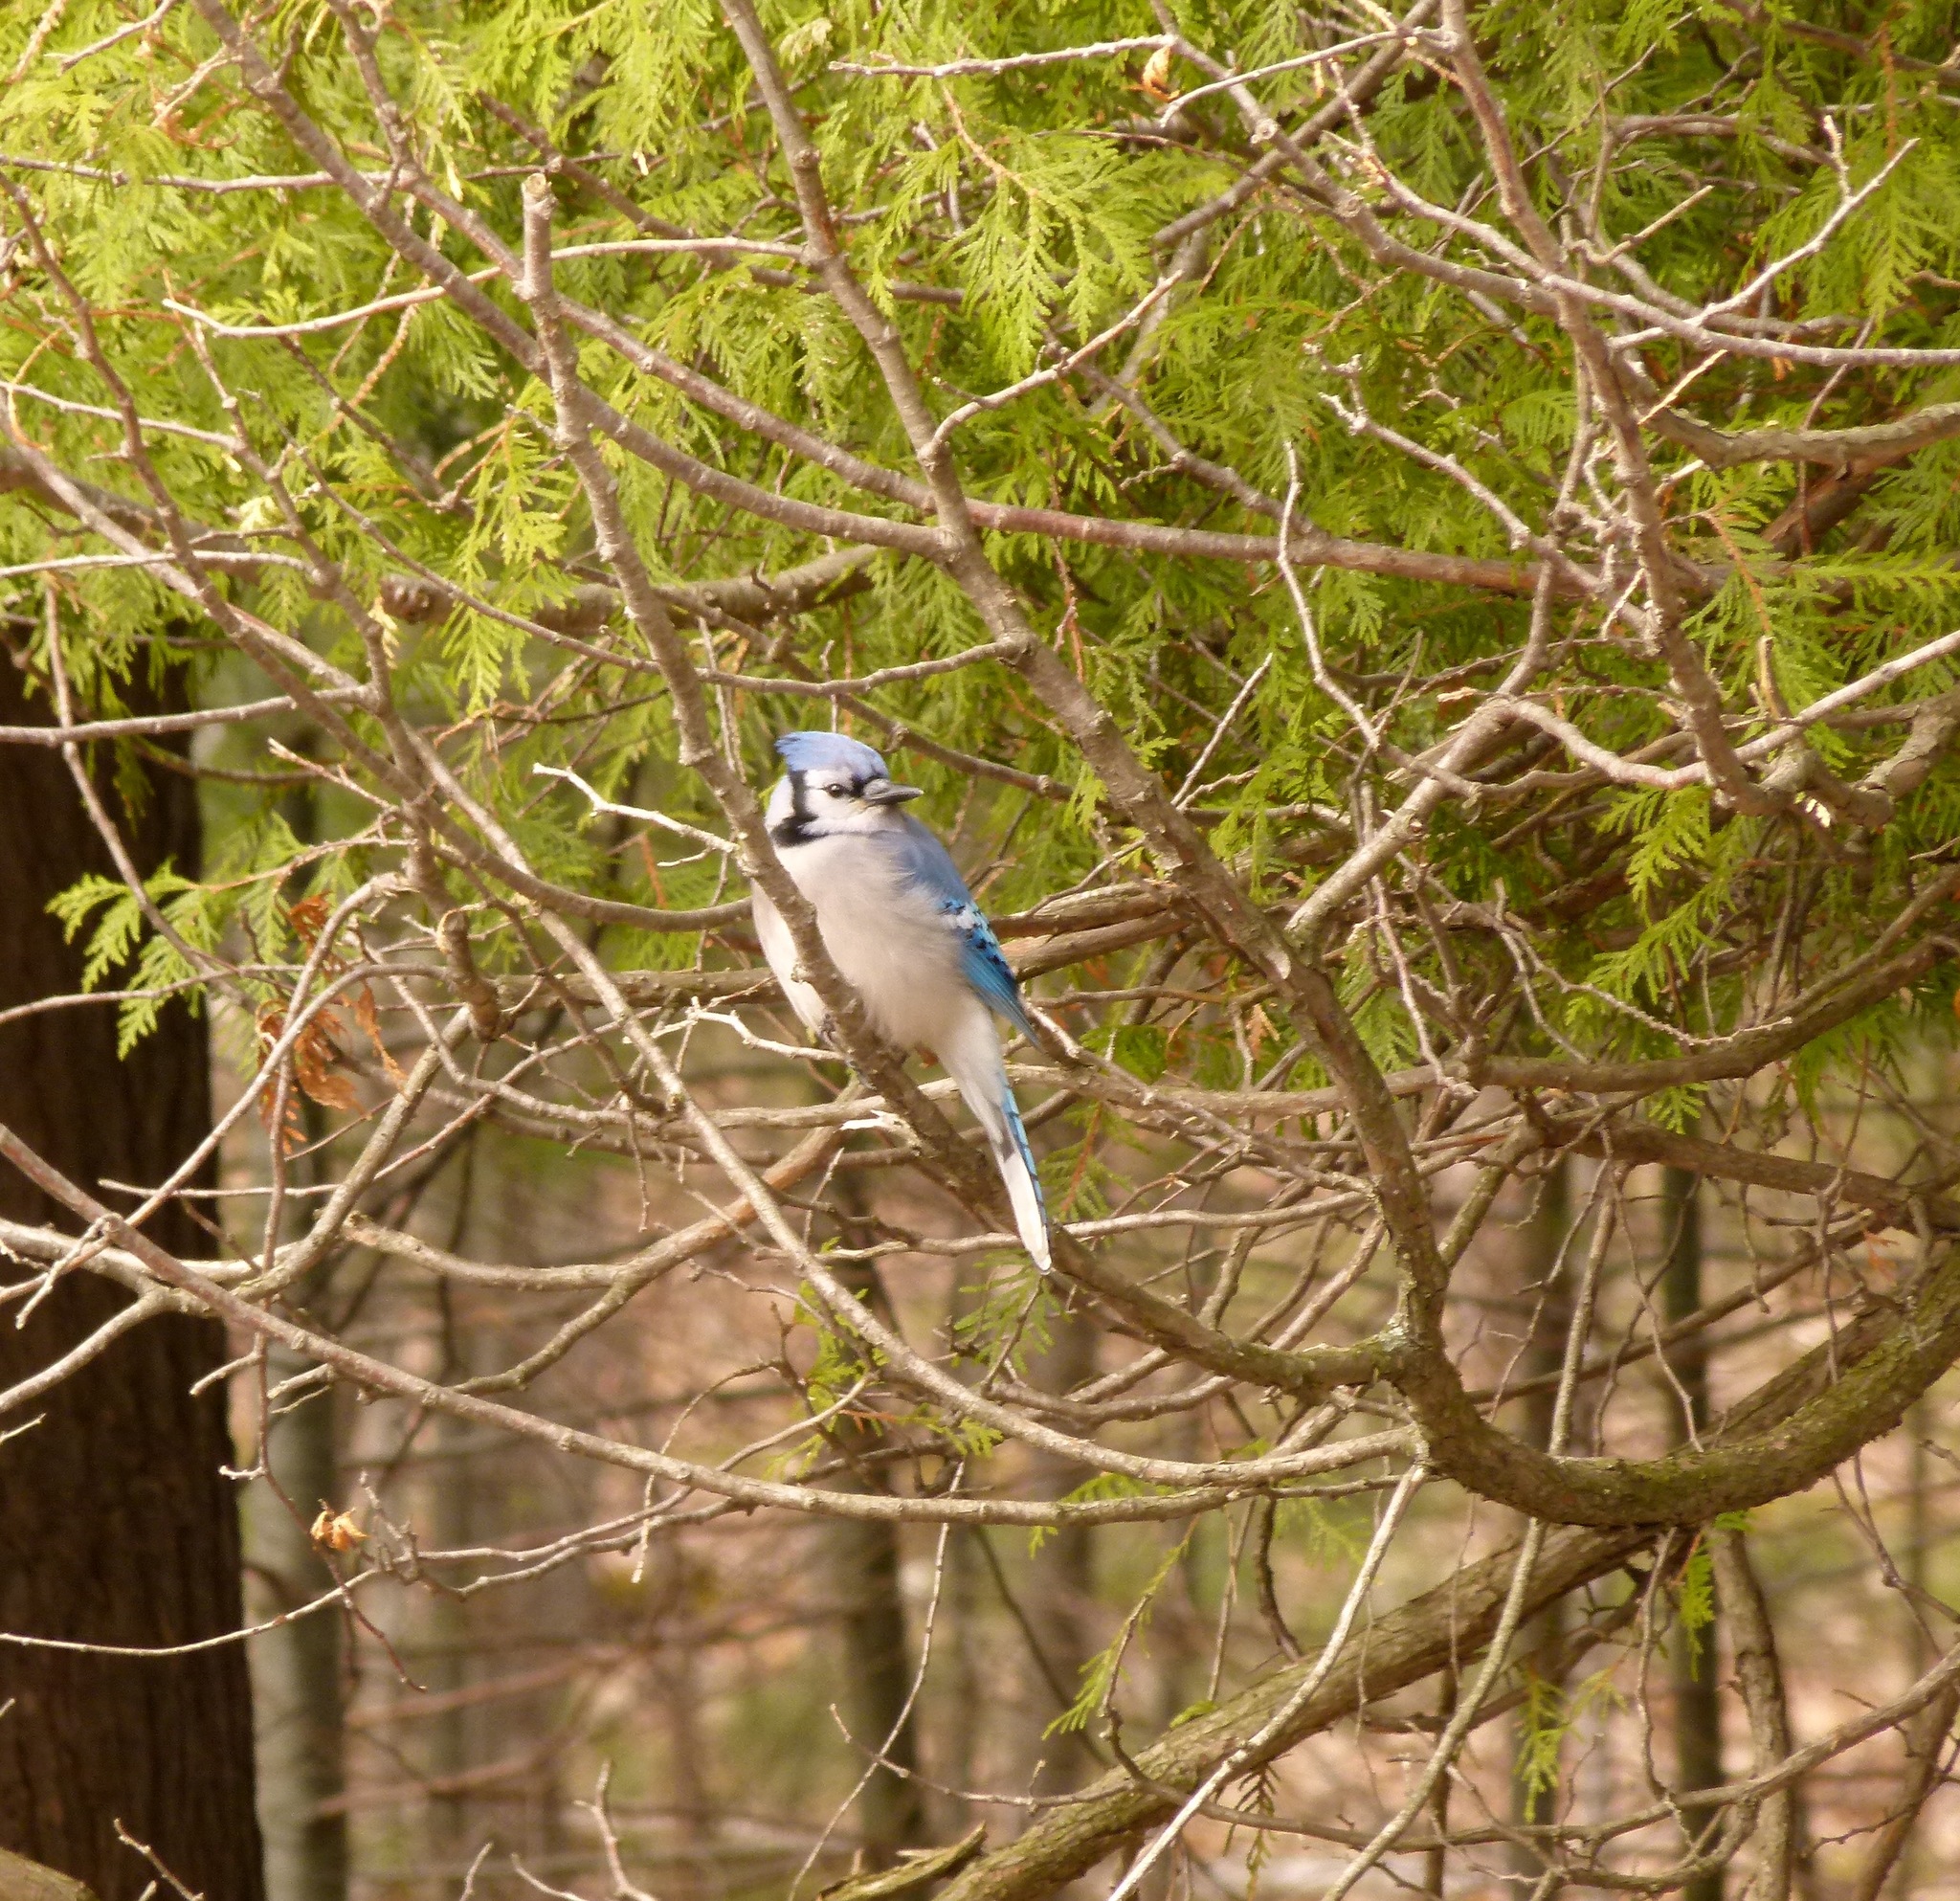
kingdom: Animalia
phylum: Chordata
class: Aves
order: Passeriformes
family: Corvidae
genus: Cyanocitta
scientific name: Cyanocitta cristata
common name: Blue jay
